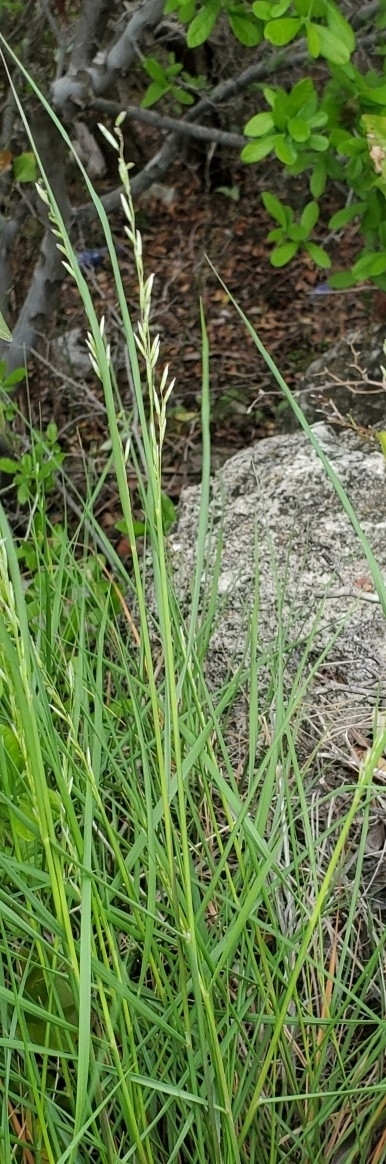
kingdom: Plantae
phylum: Tracheophyta
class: Liliopsida
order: Poales
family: Poaceae
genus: Melica
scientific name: Melica nitens
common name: Three-flower melic
